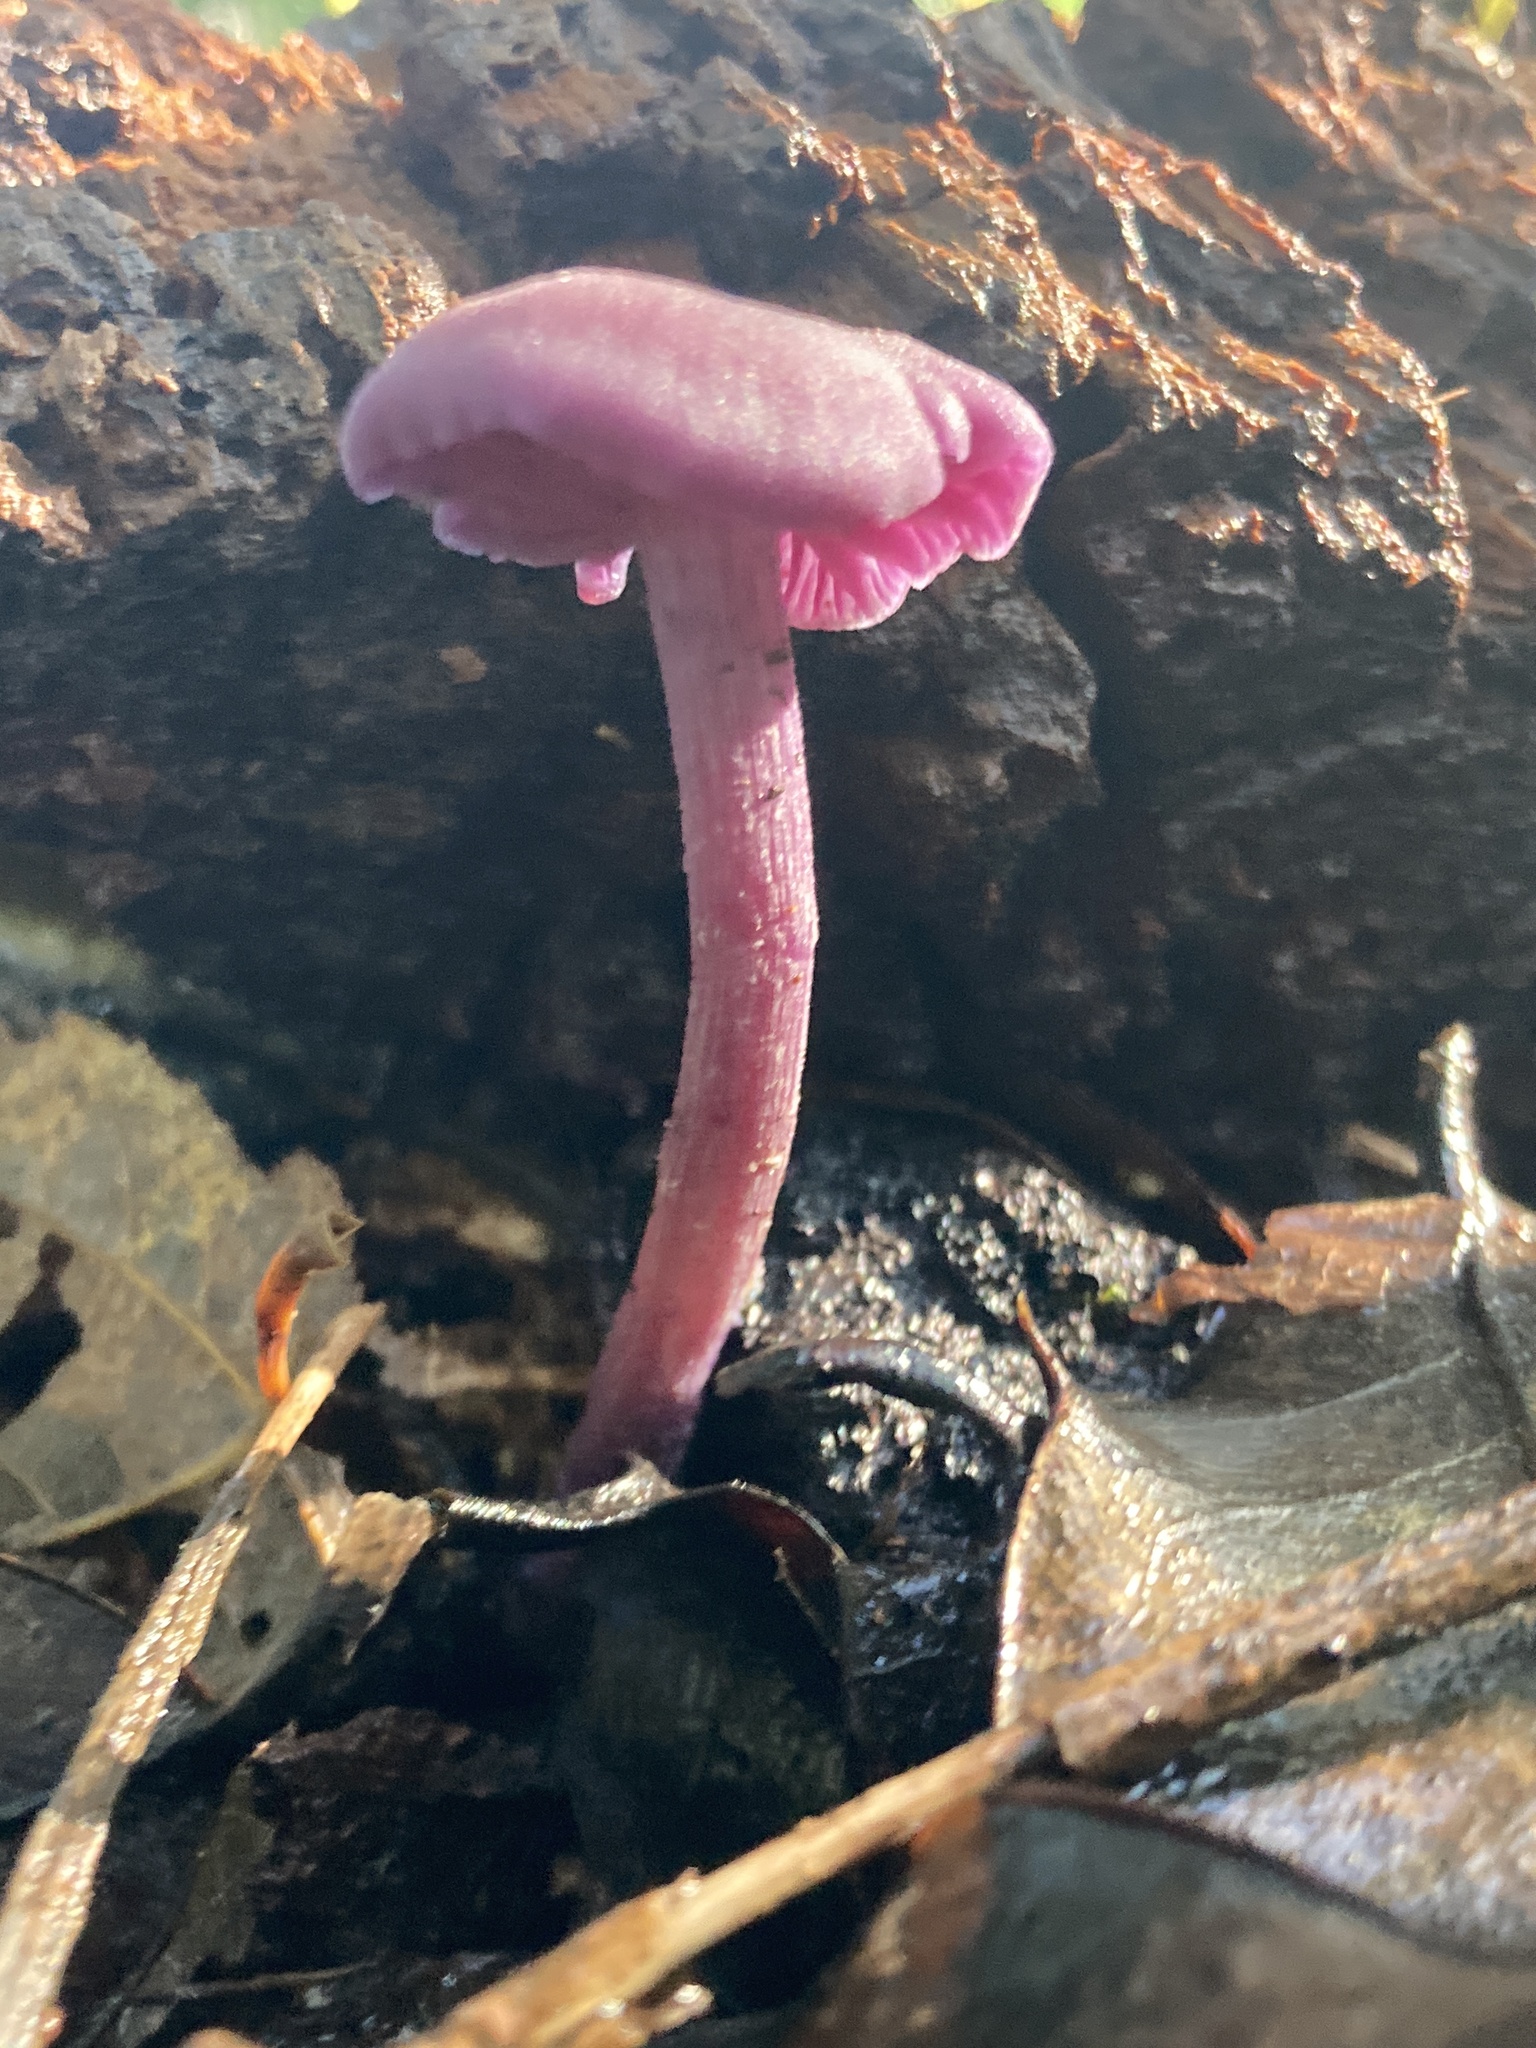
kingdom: Fungi
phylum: Basidiomycota
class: Agaricomycetes
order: Agaricales
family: Hydnangiaceae
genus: Laccaria
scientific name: Laccaria amethystina
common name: Amethyst deceiver
